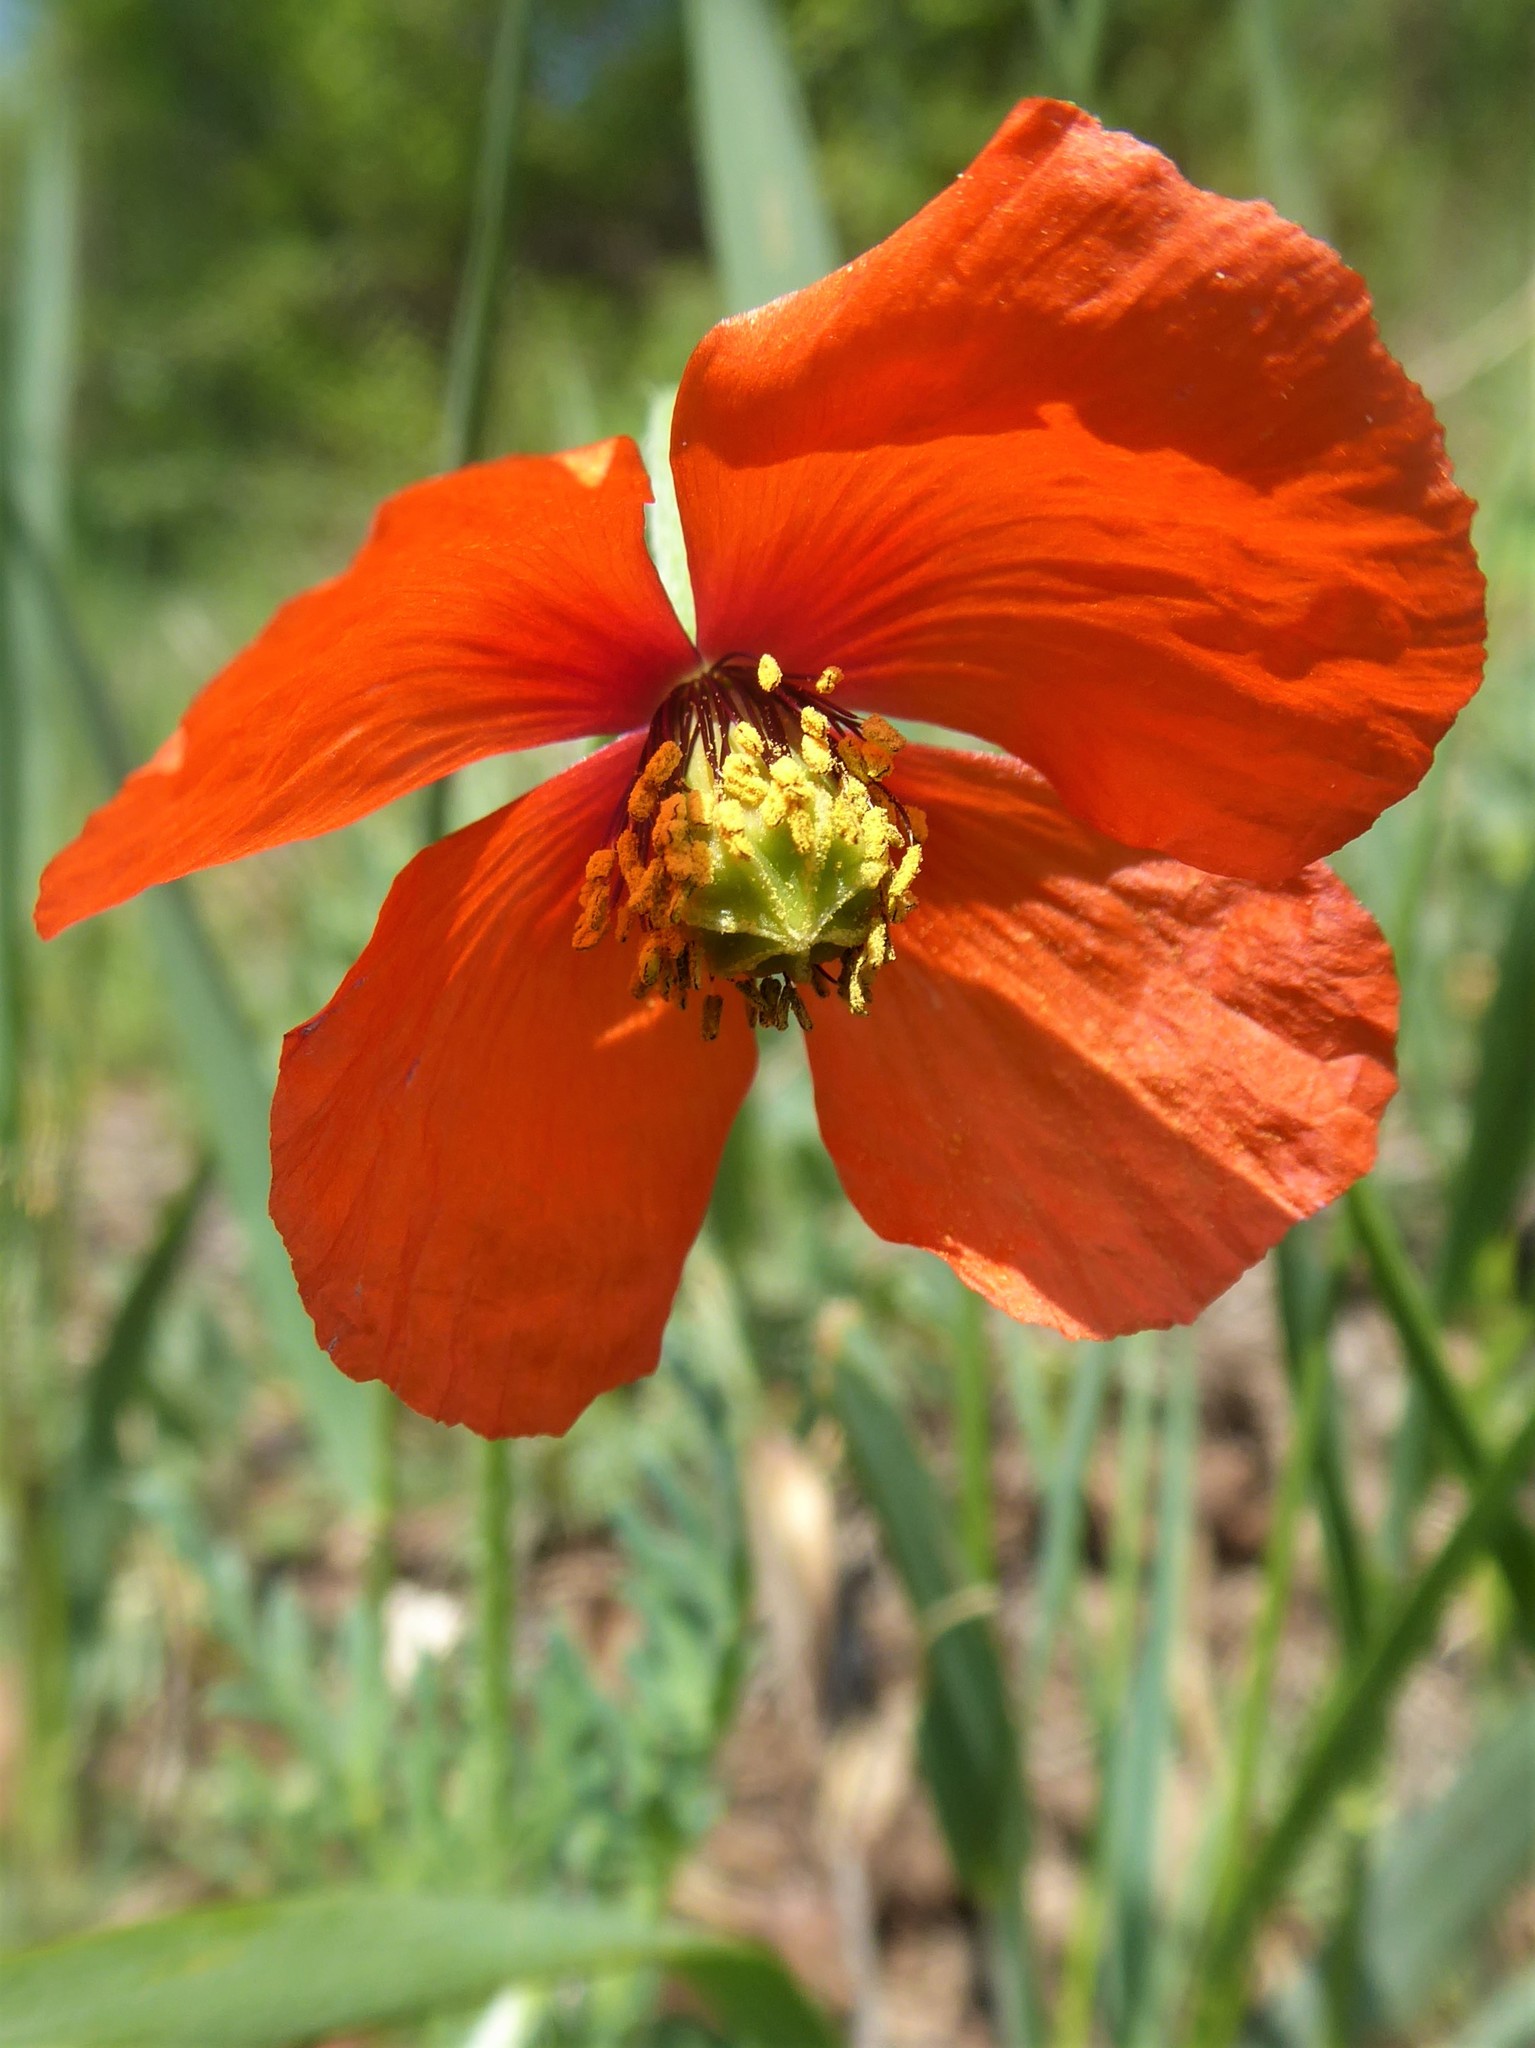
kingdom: Plantae
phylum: Tracheophyta
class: Magnoliopsida
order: Ranunculales
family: Papaveraceae
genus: Papaver
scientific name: Papaver dubium
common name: Long-headed poppy
